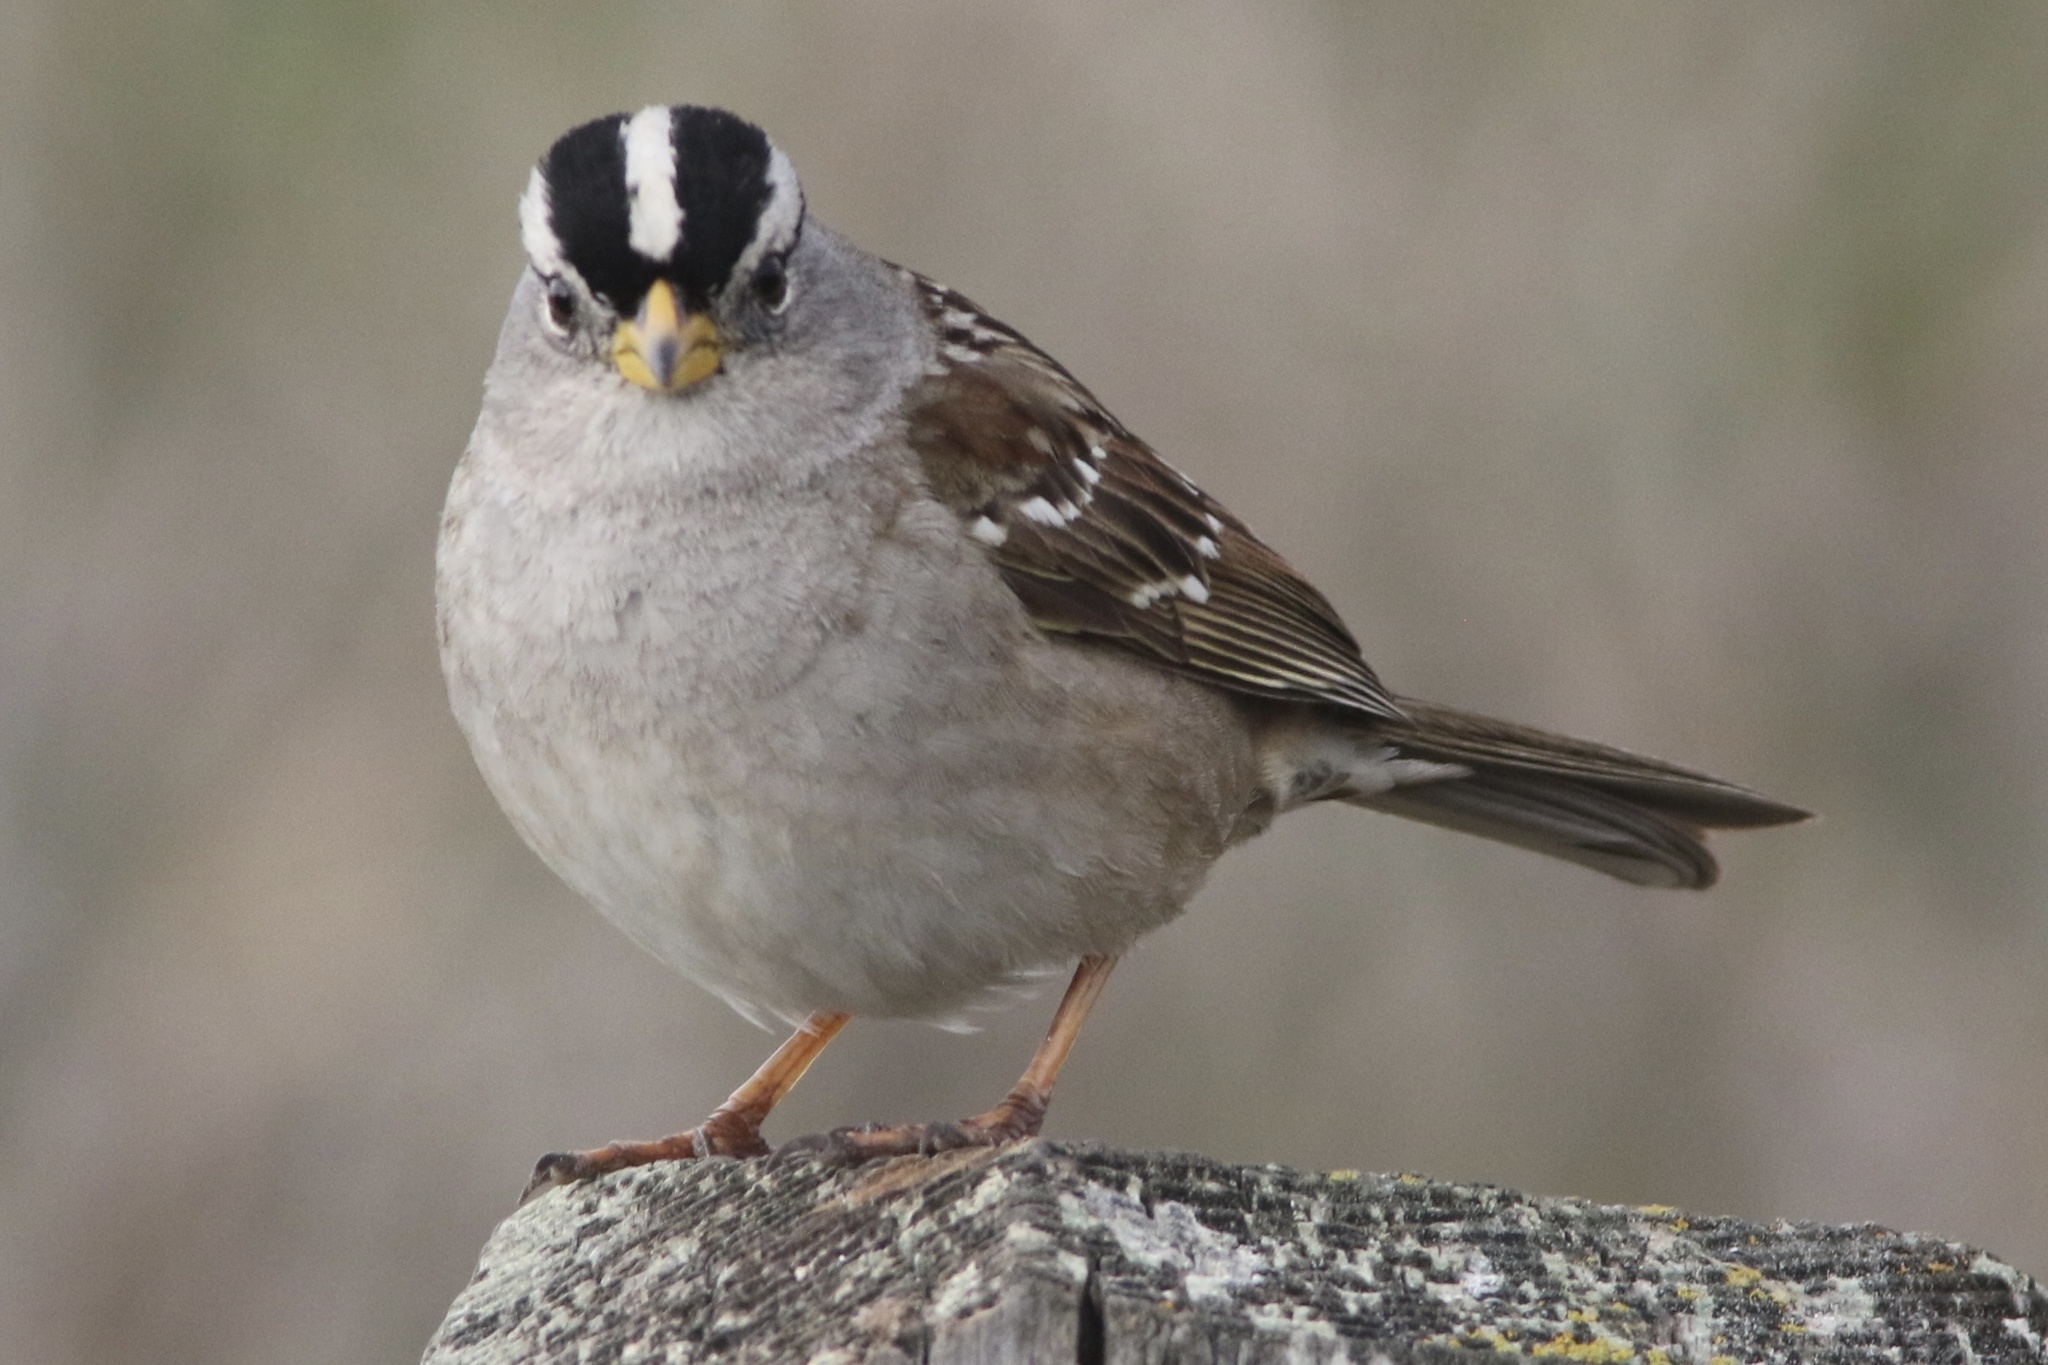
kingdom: Animalia
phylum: Chordata
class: Aves
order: Passeriformes
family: Passerellidae
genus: Zonotrichia
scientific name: Zonotrichia leucophrys
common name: White-crowned sparrow
